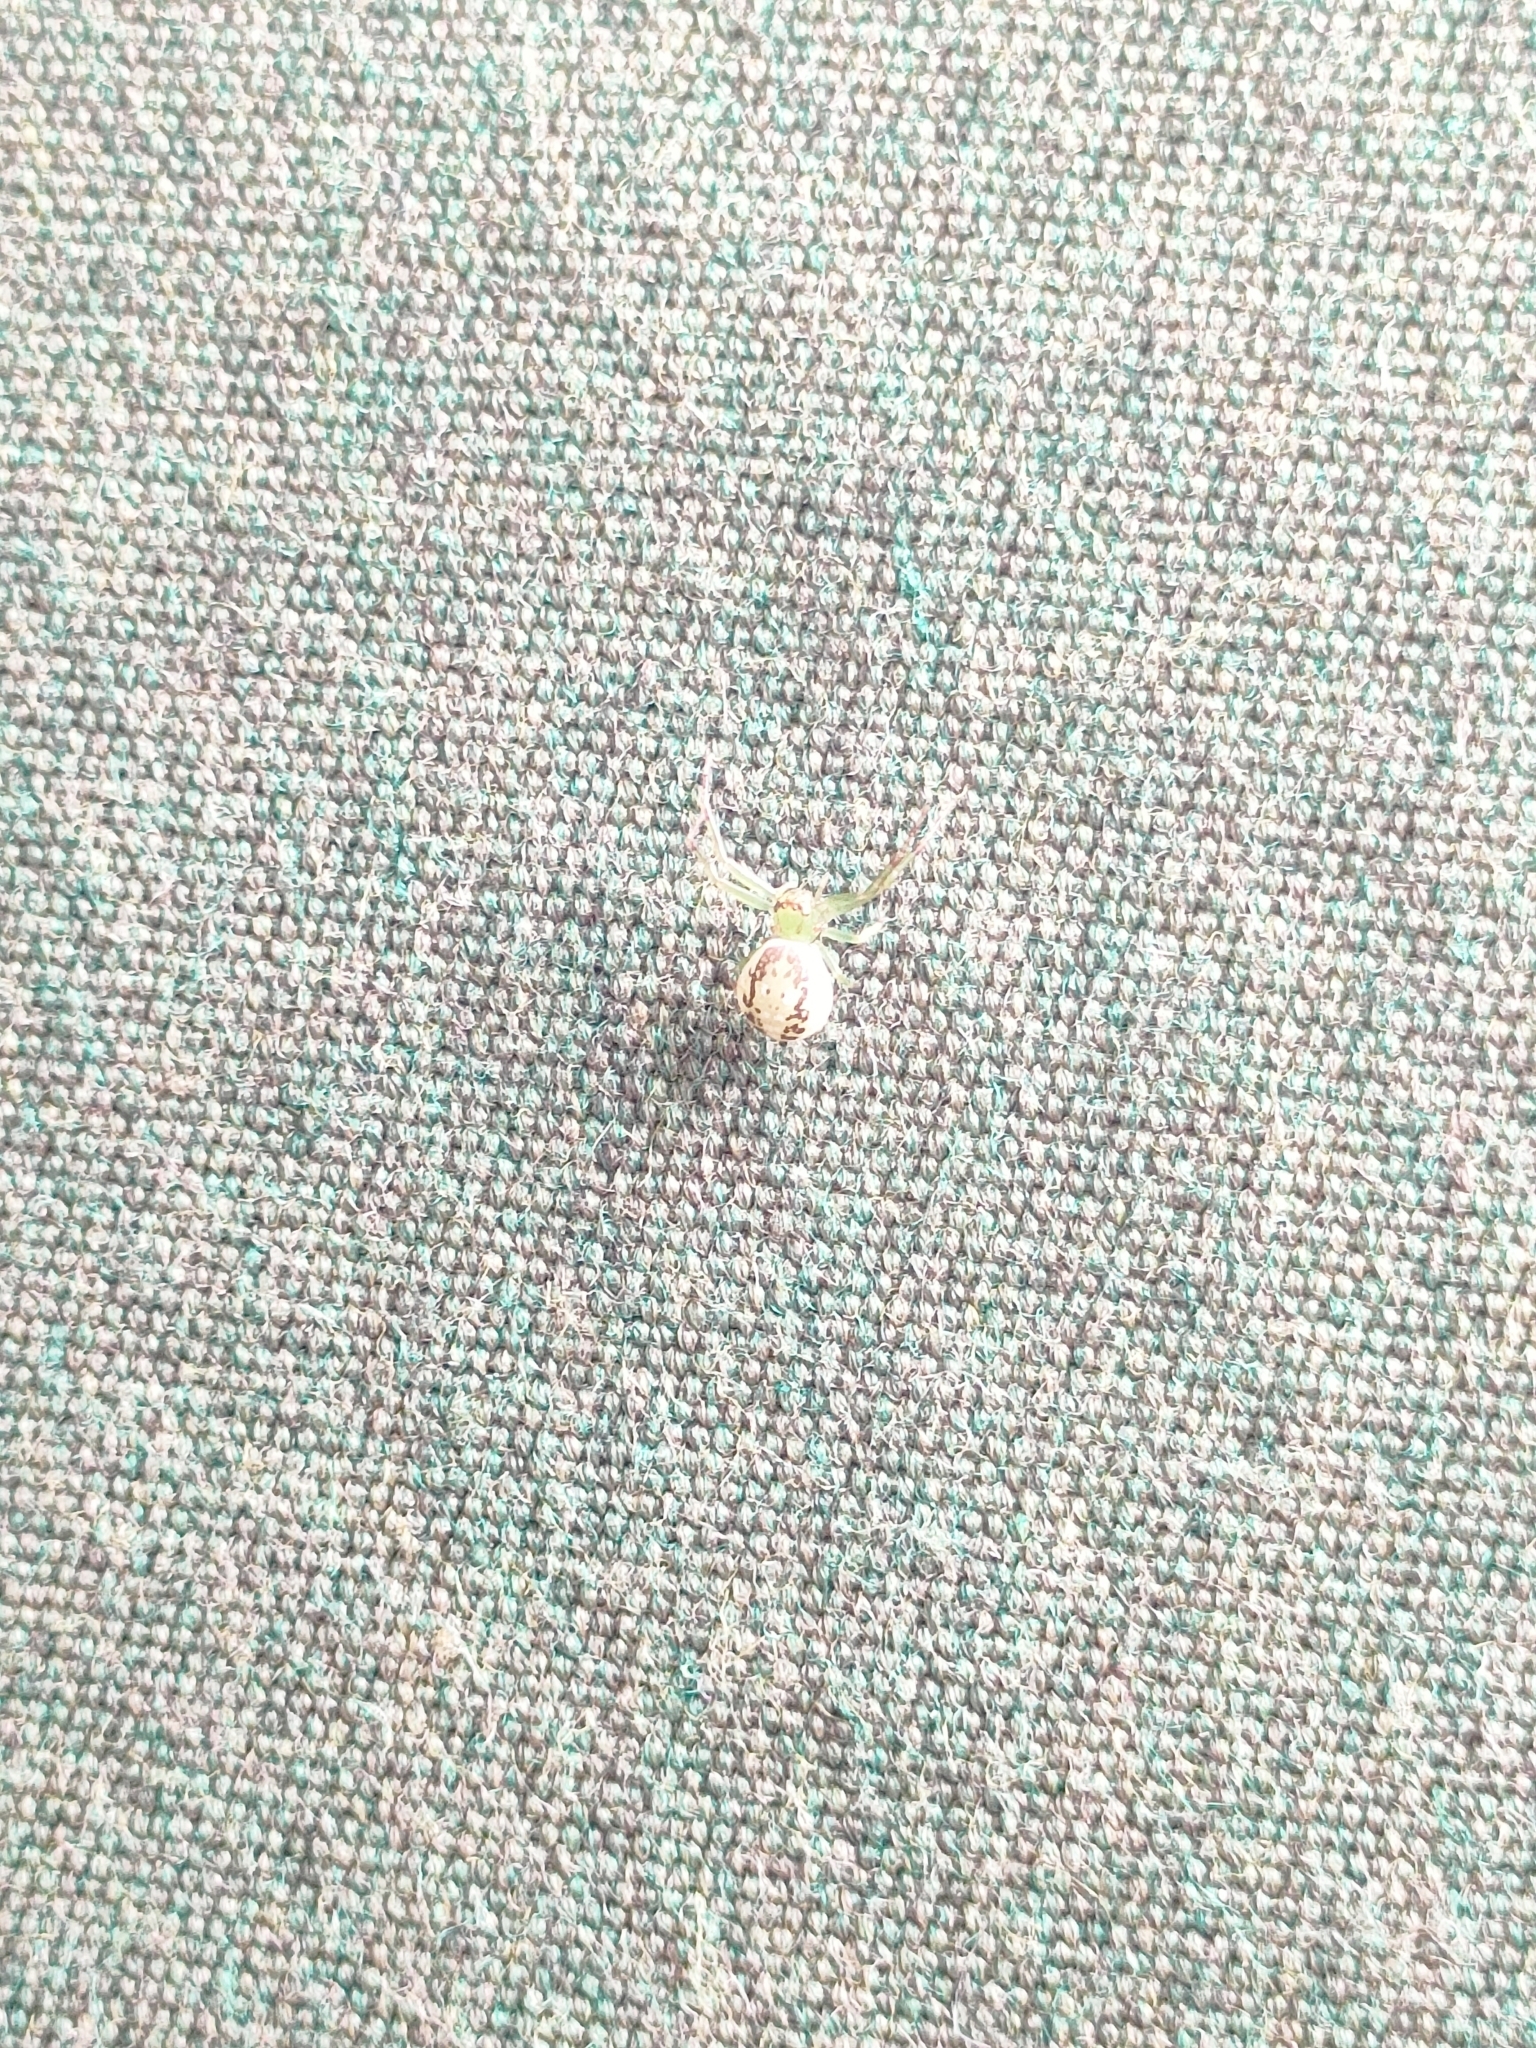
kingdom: Animalia
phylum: Arthropoda
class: Arachnida
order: Araneae
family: Thomisidae
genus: Diaea
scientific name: Diaea ambara
